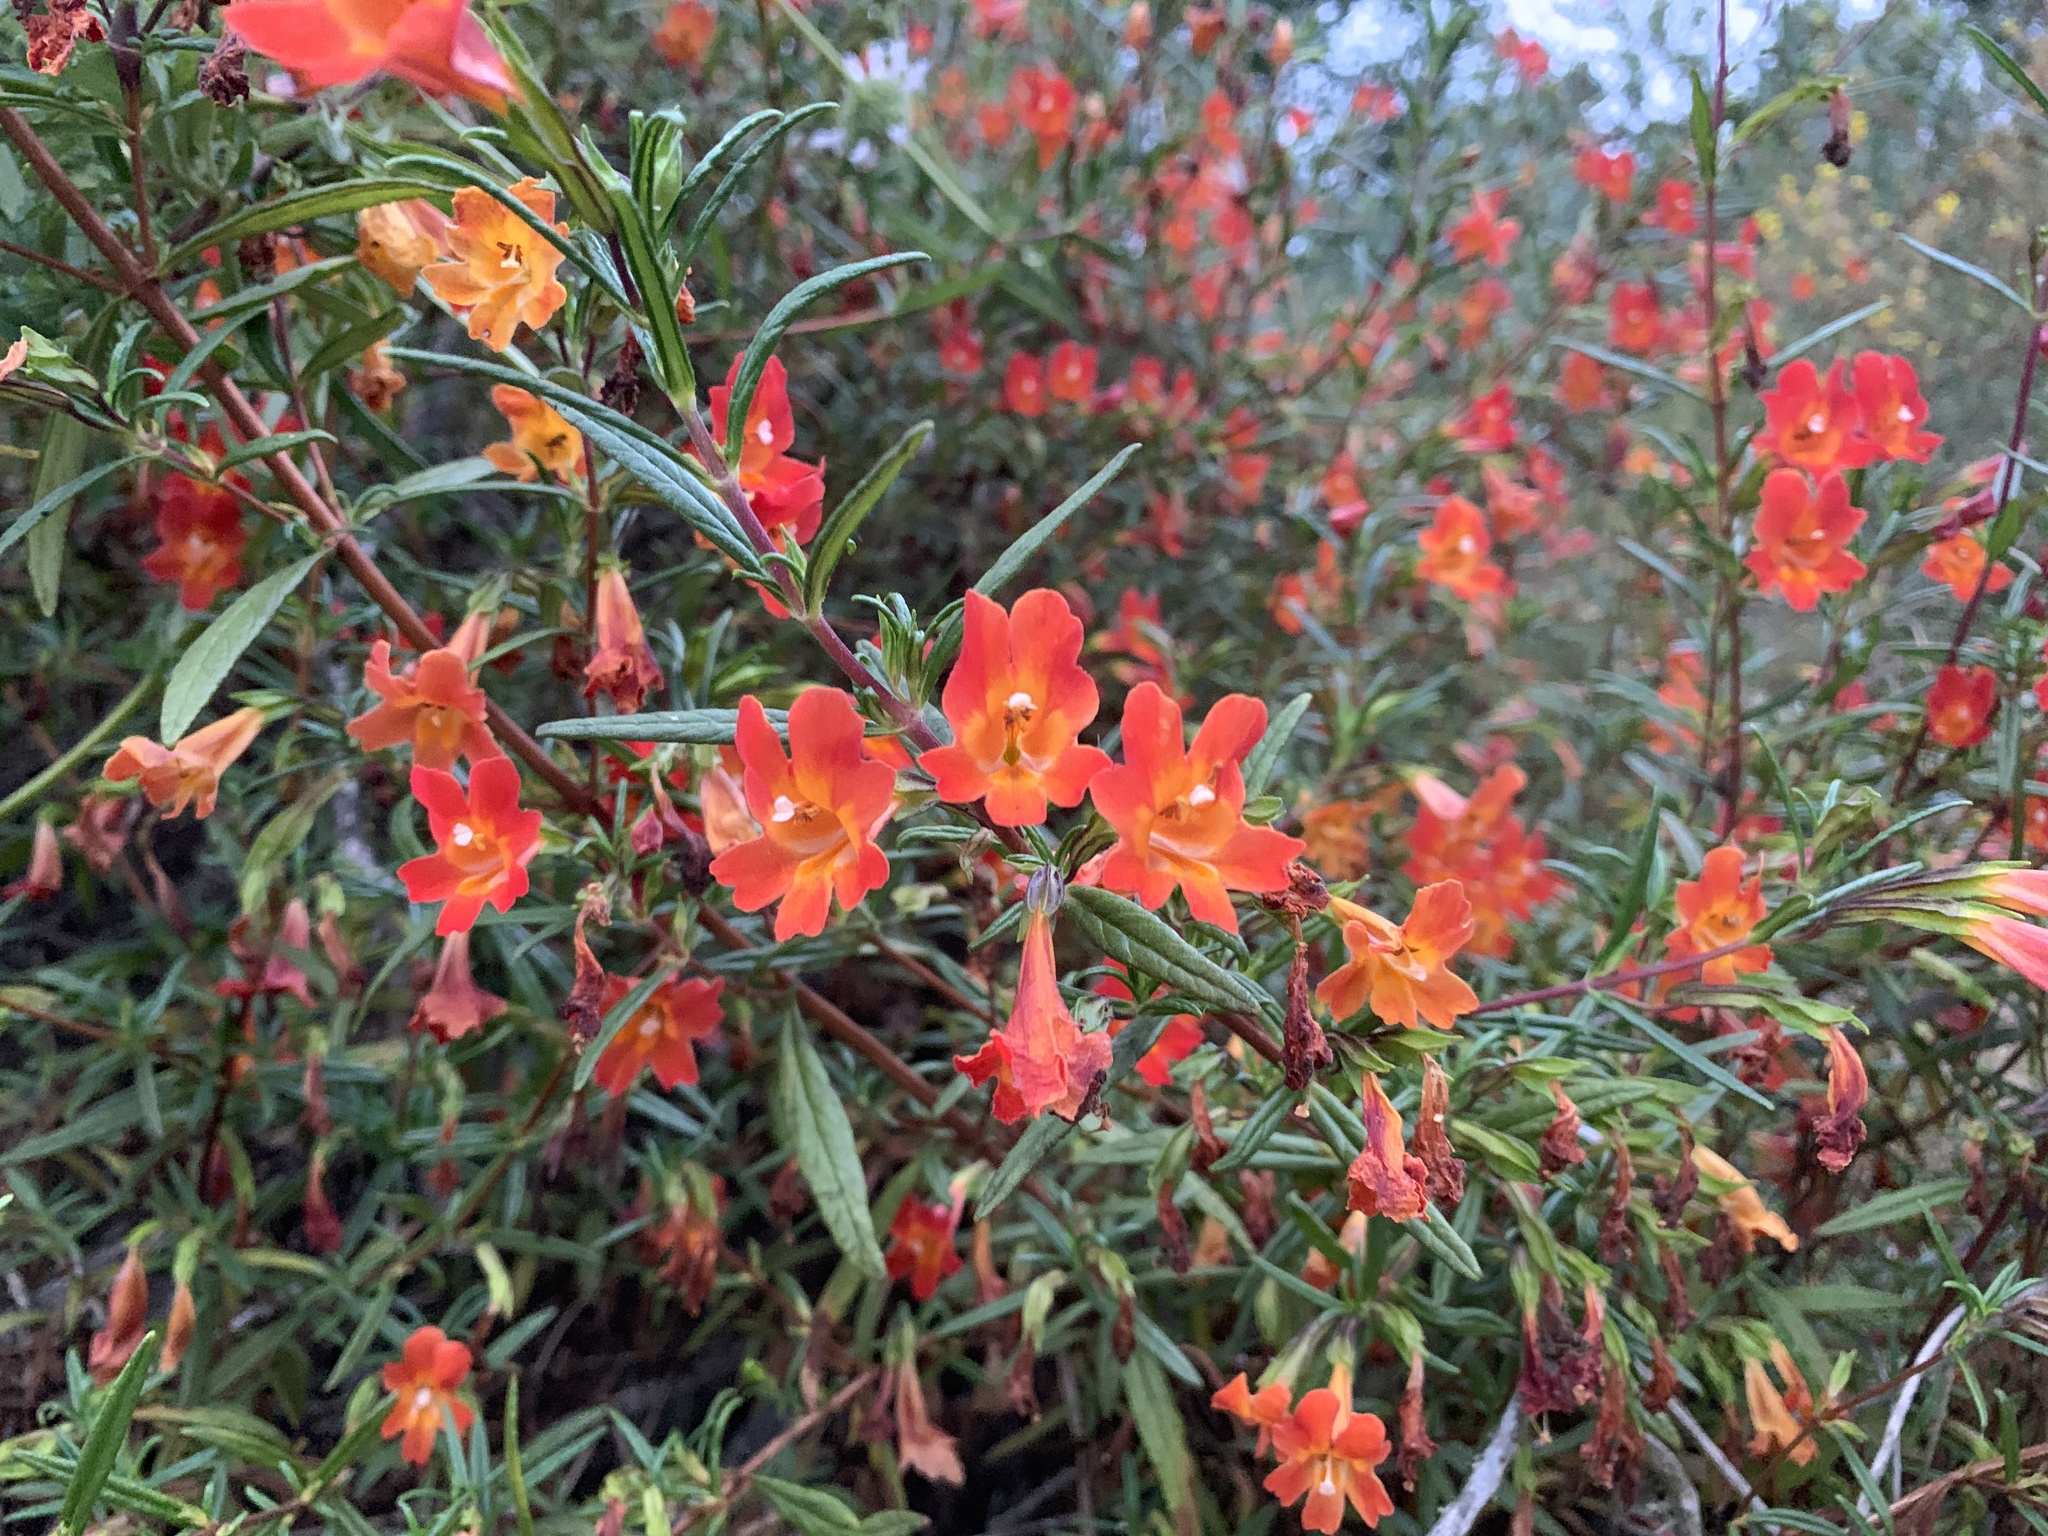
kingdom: Plantae
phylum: Tracheophyta
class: Magnoliopsida
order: Lamiales
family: Phrymaceae
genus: Diplacus
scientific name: Diplacus puniceus
